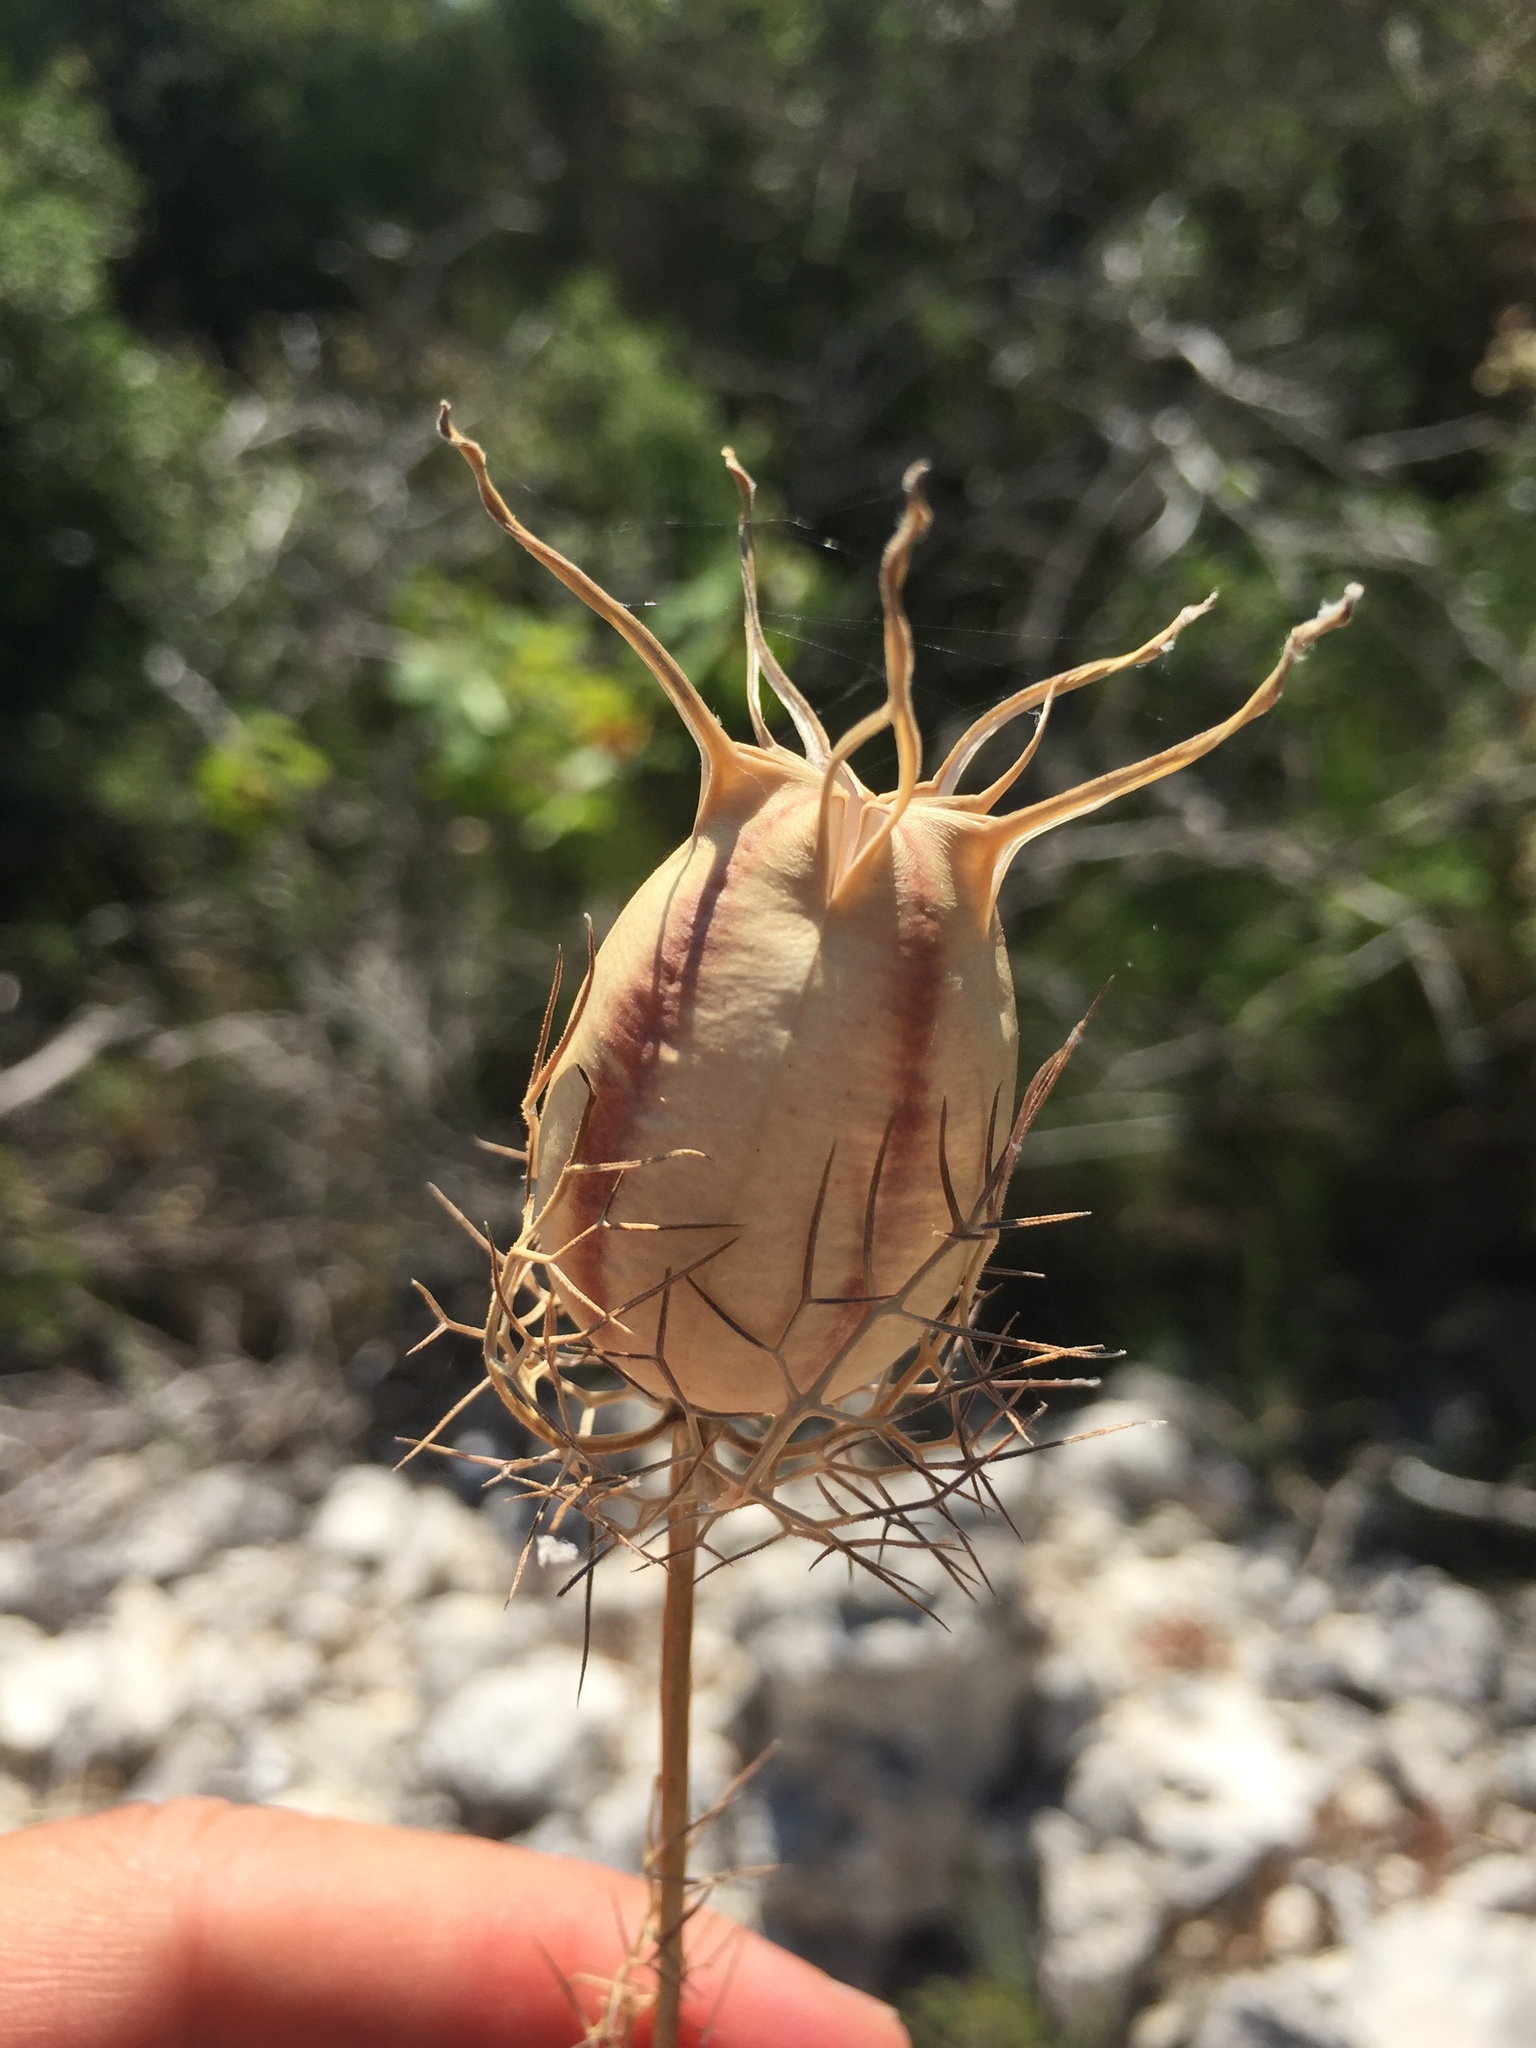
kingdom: Plantae
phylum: Tracheophyta
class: Magnoliopsida
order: Ranunculales
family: Ranunculaceae
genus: Nigella
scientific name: Nigella damascena
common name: Love-in-a-mist
